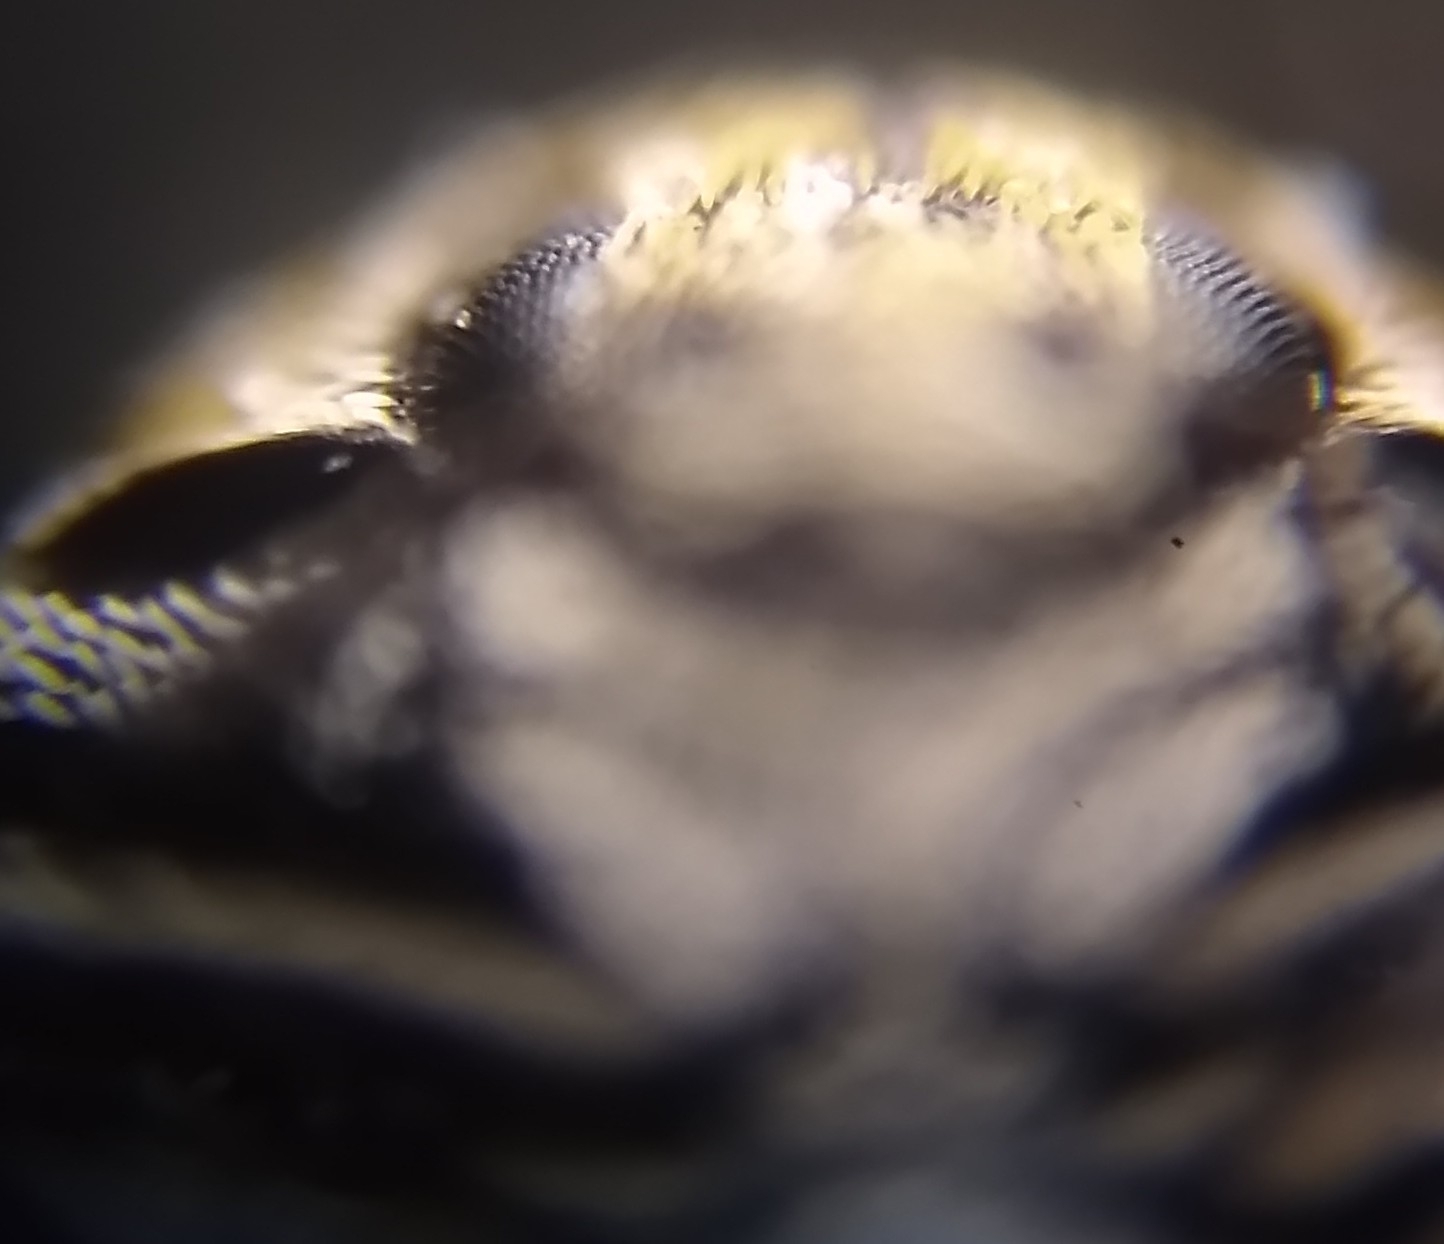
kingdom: Animalia
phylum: Arthropoda
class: Insecta
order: Coleoptera
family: Dermestidae
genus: Anthrenus
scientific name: Anthrenus verbasci
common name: Varied carpet beetle
